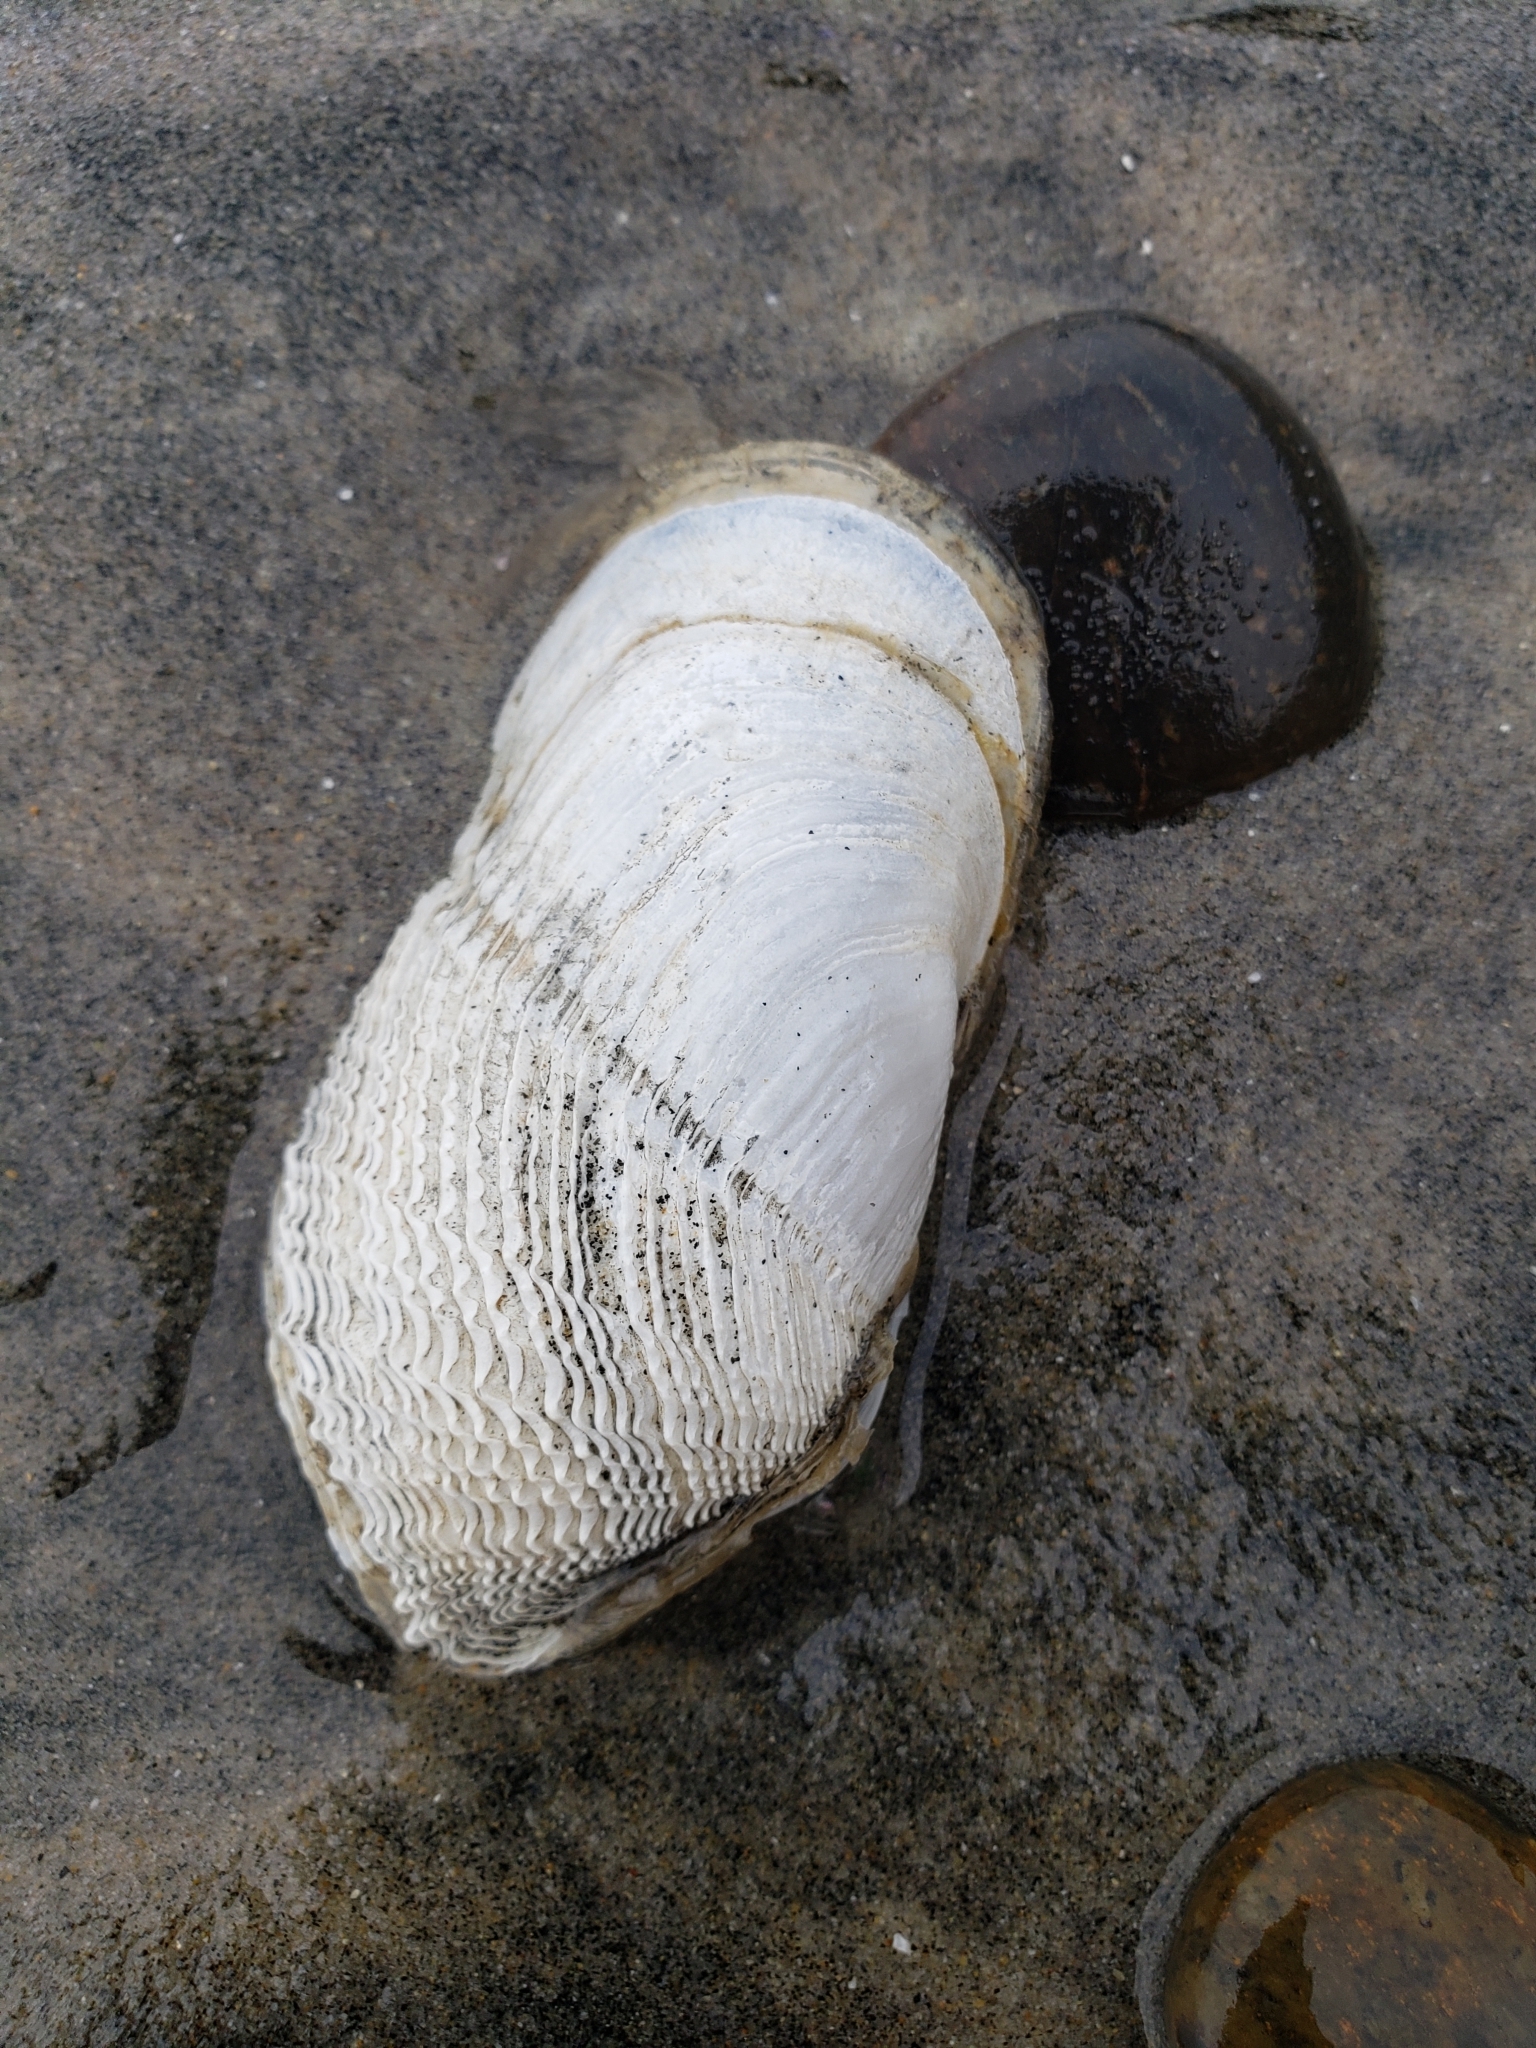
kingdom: Animalia
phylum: Mollusca
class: Bivalvia
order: Myida
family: Pholadidae
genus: Zirfaea
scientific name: Zirfaea pilsbryi
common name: Rough piddock
